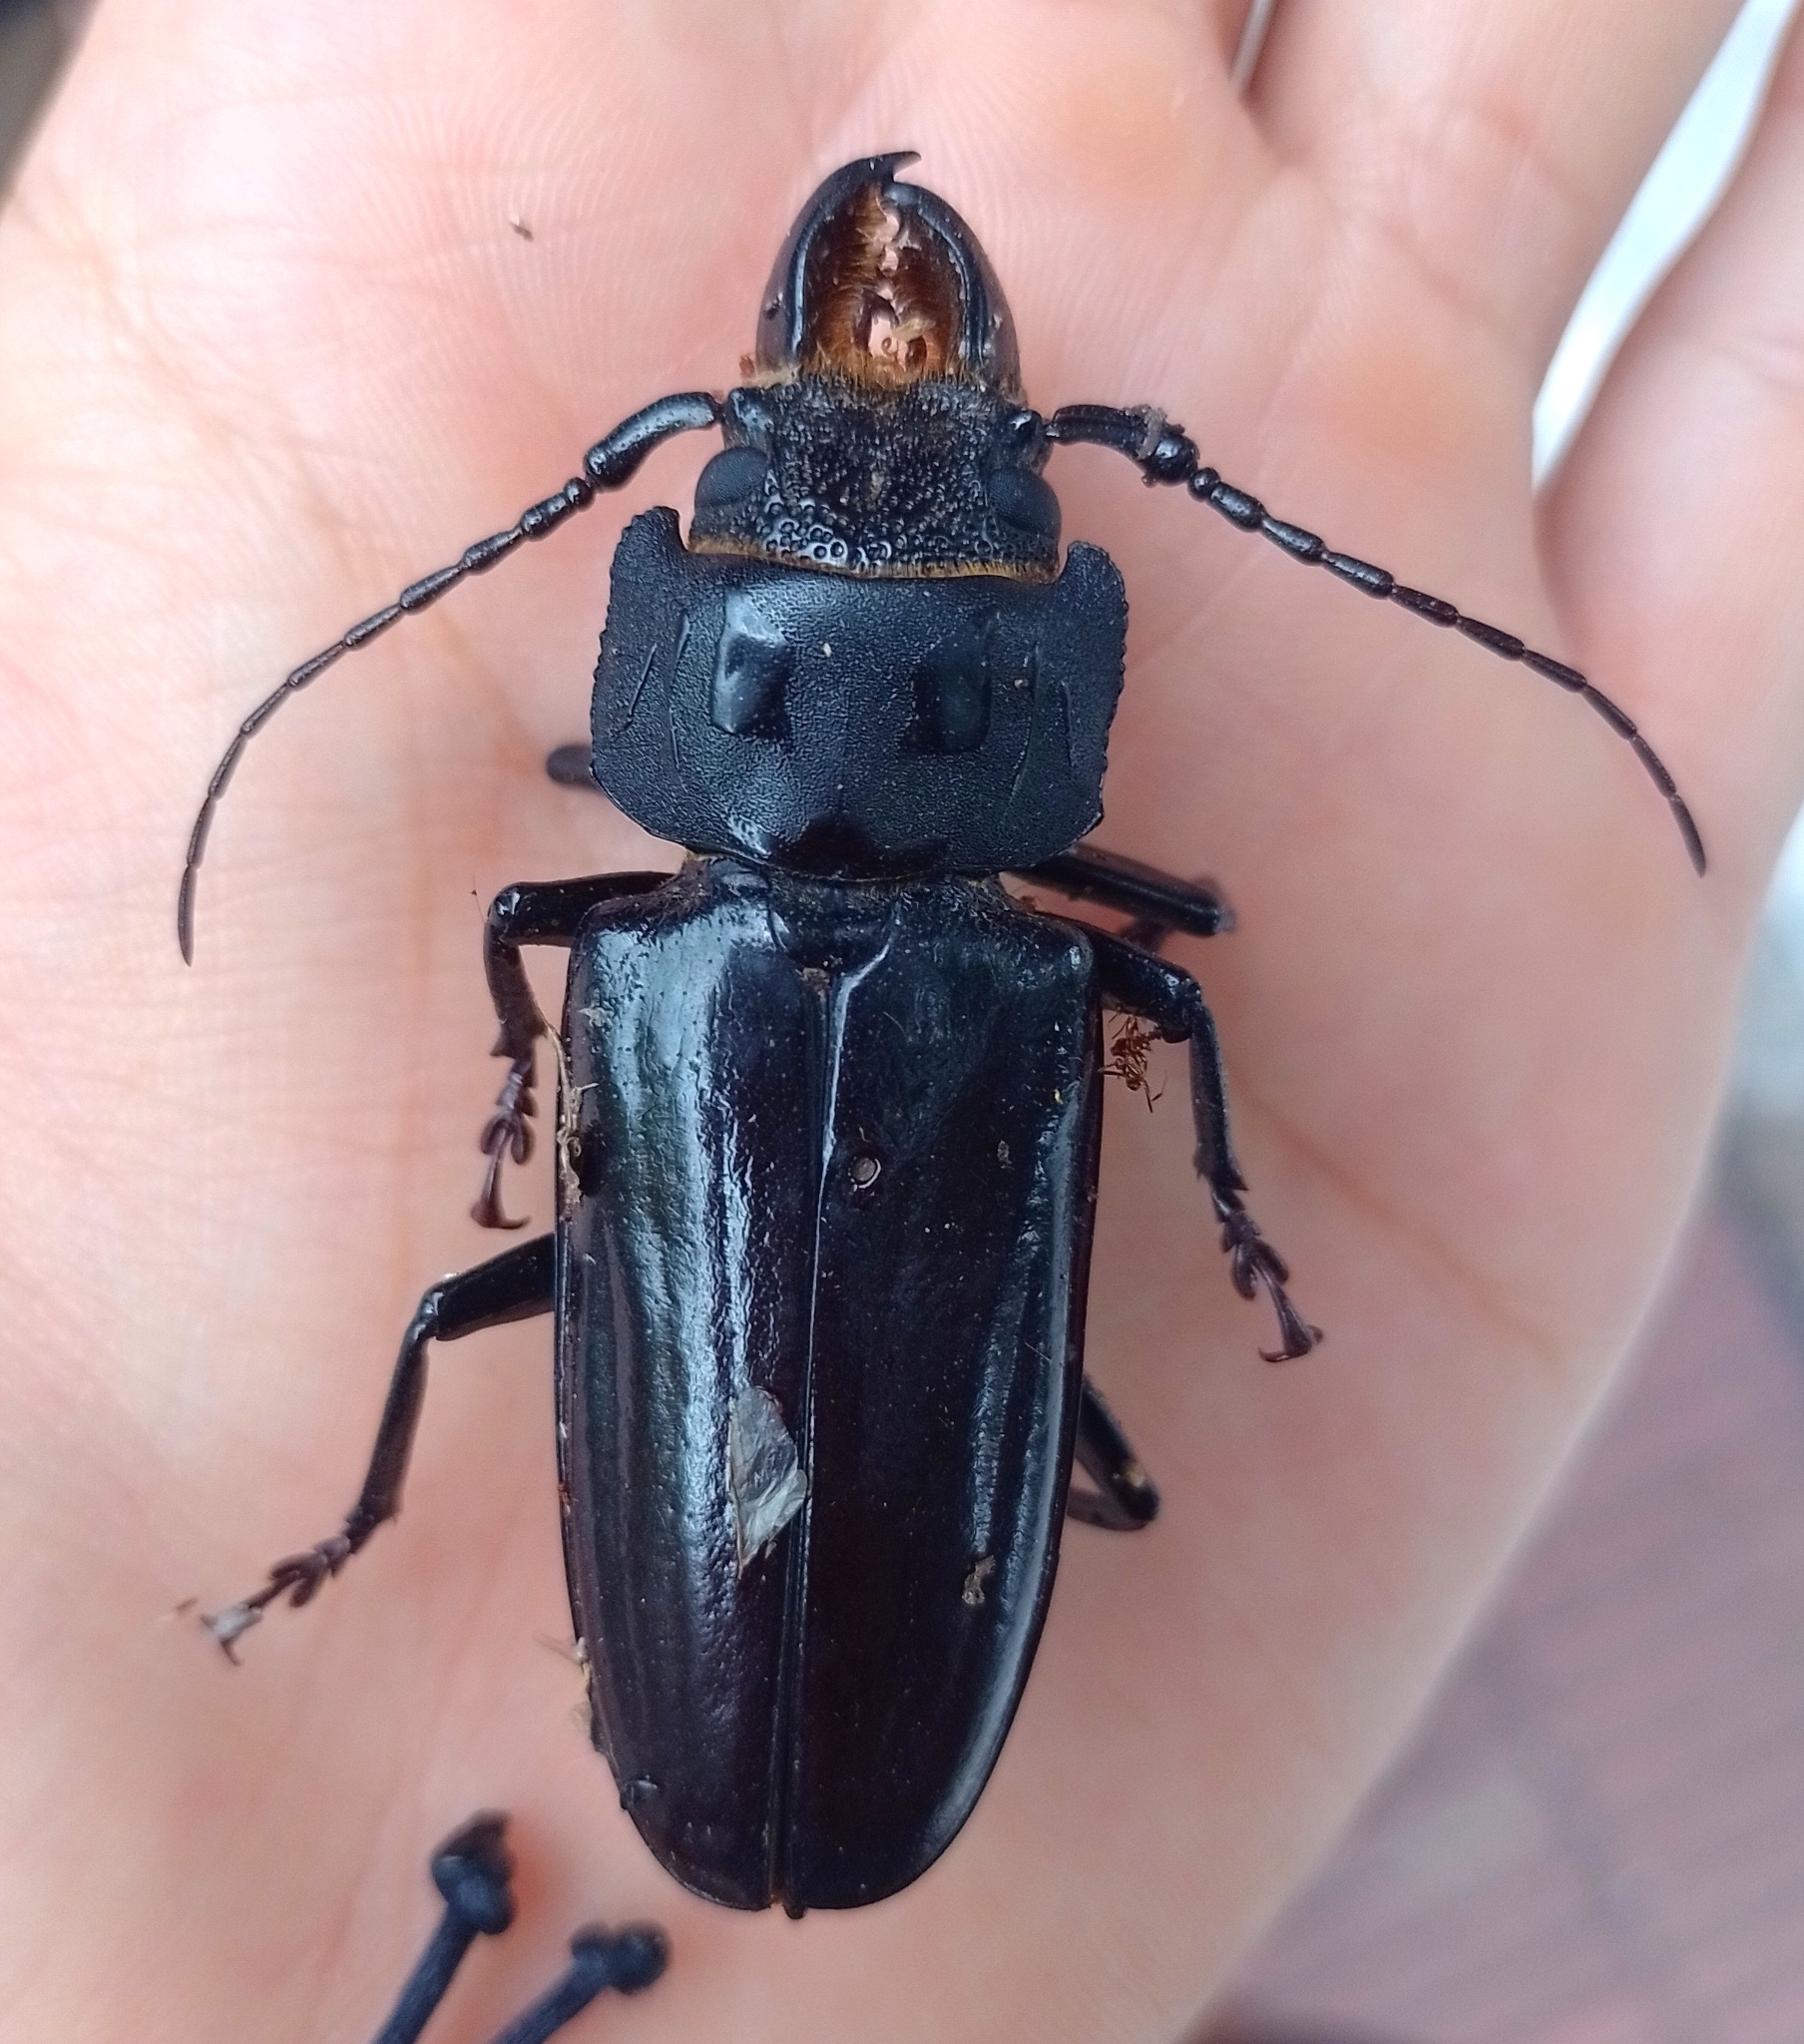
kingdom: Animalia
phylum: Arthropoda
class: Insecta
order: Coleoptera
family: Cerambycidae
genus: Mallodon
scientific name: Mallodon dasystomum
